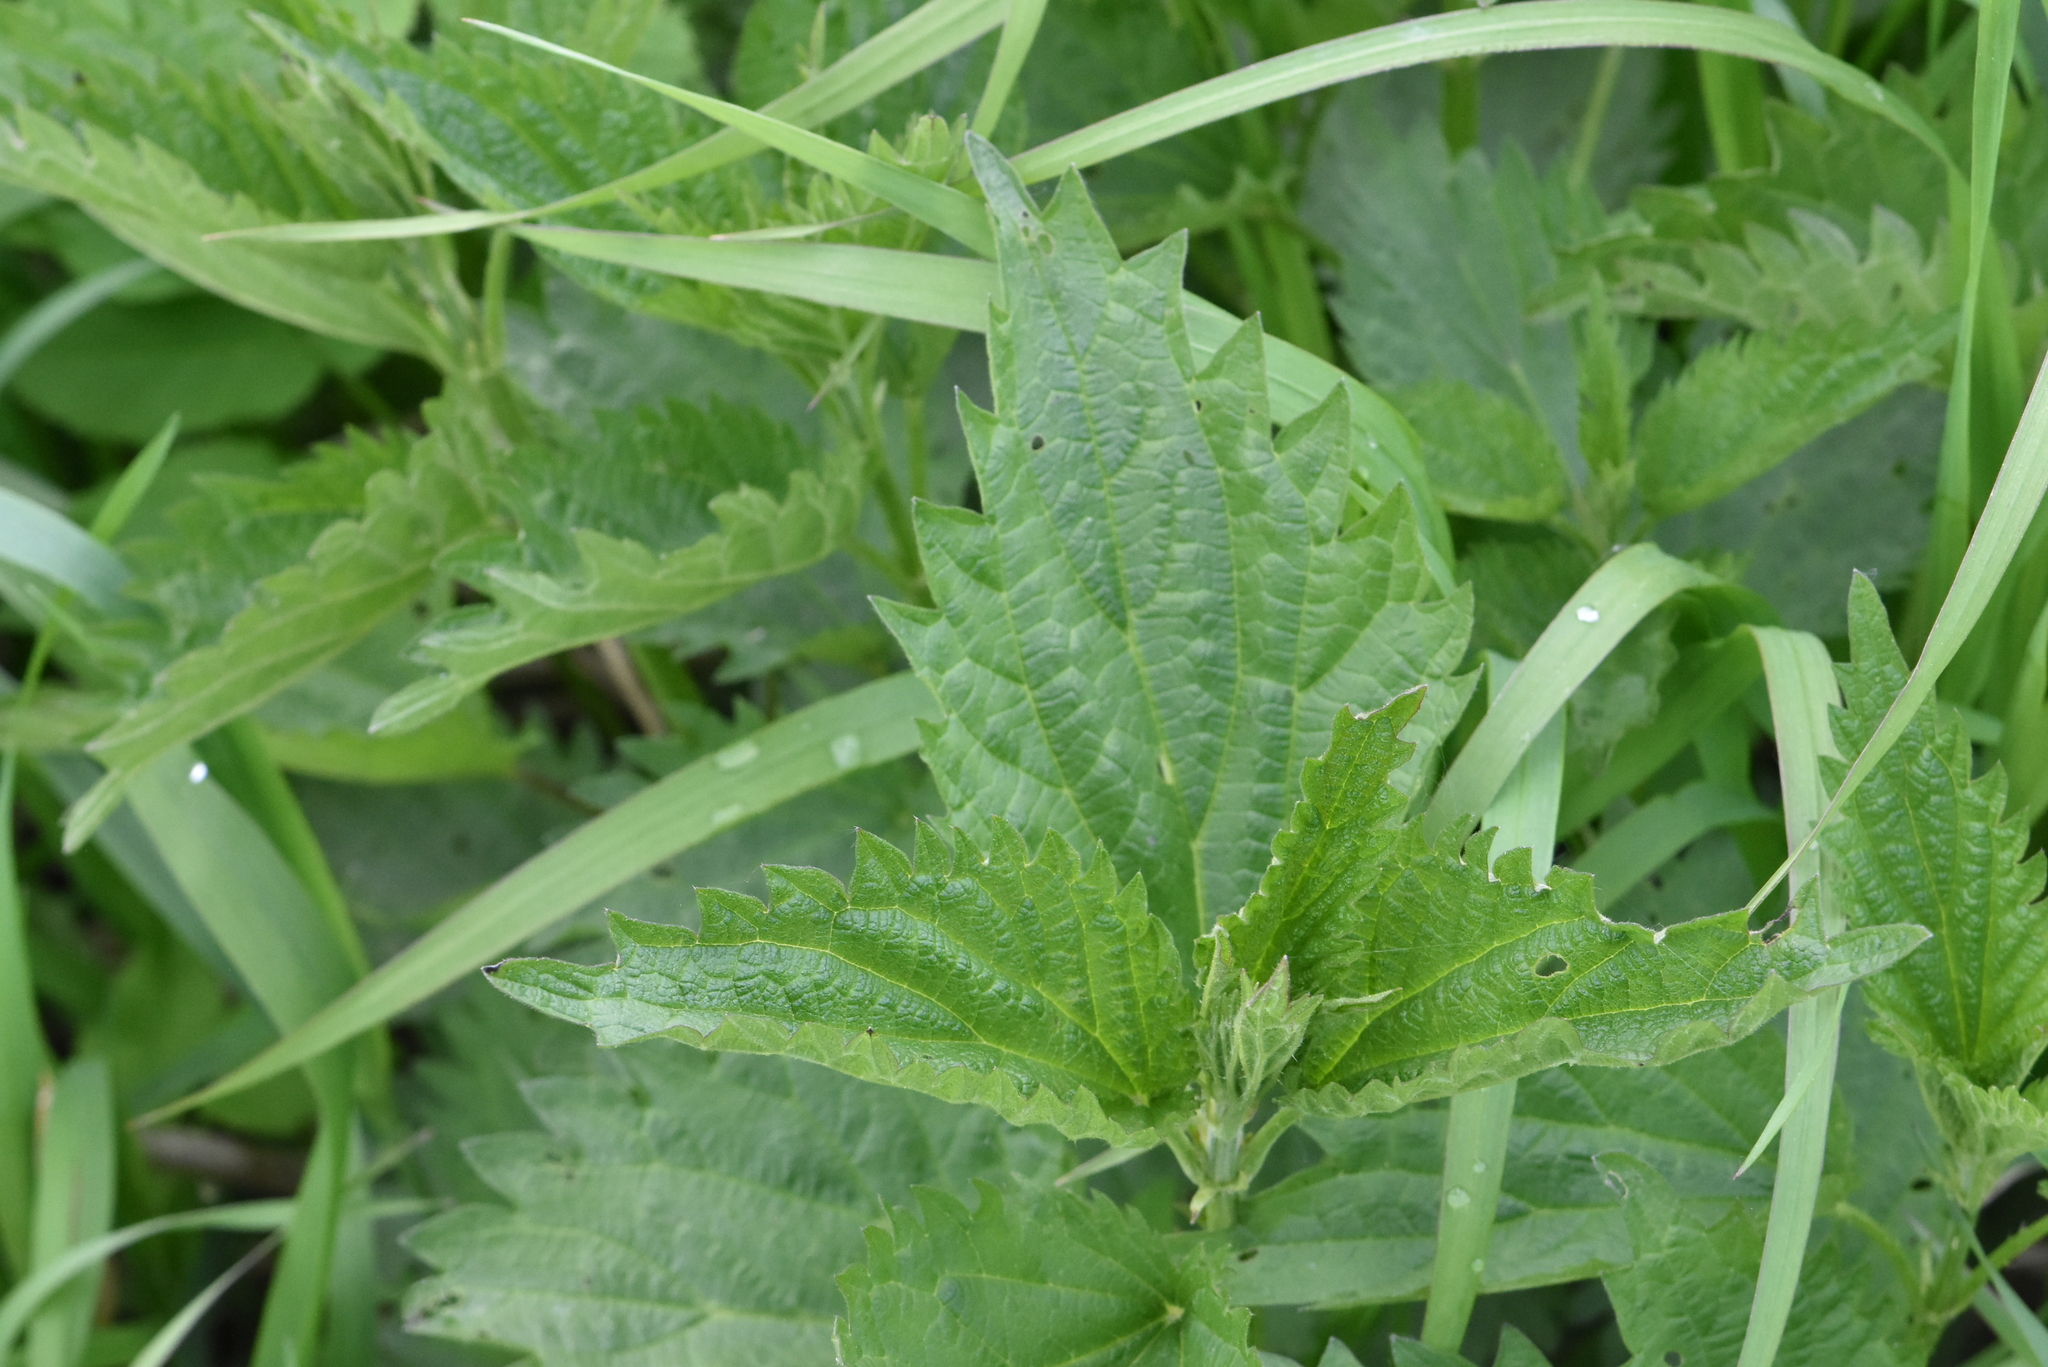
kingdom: Plantae
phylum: Tracheophyta
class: Magnoliopsida
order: Rosales
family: Urticaceae
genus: Urtica
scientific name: Urtica dioica
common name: Common nettle
